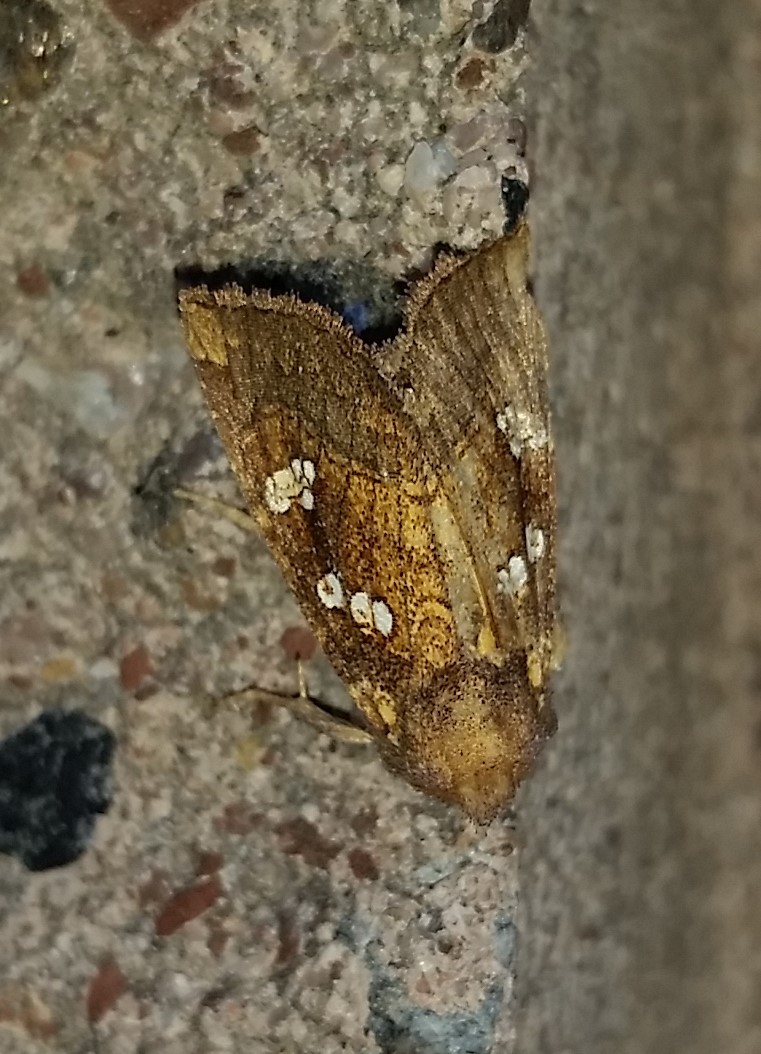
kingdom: Animalia
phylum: Arthropoda
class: Insecta
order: Lepidoptera
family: Noctuidae
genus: Papaipema
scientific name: Papaipema duovata
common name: Seaside golden borer moth
